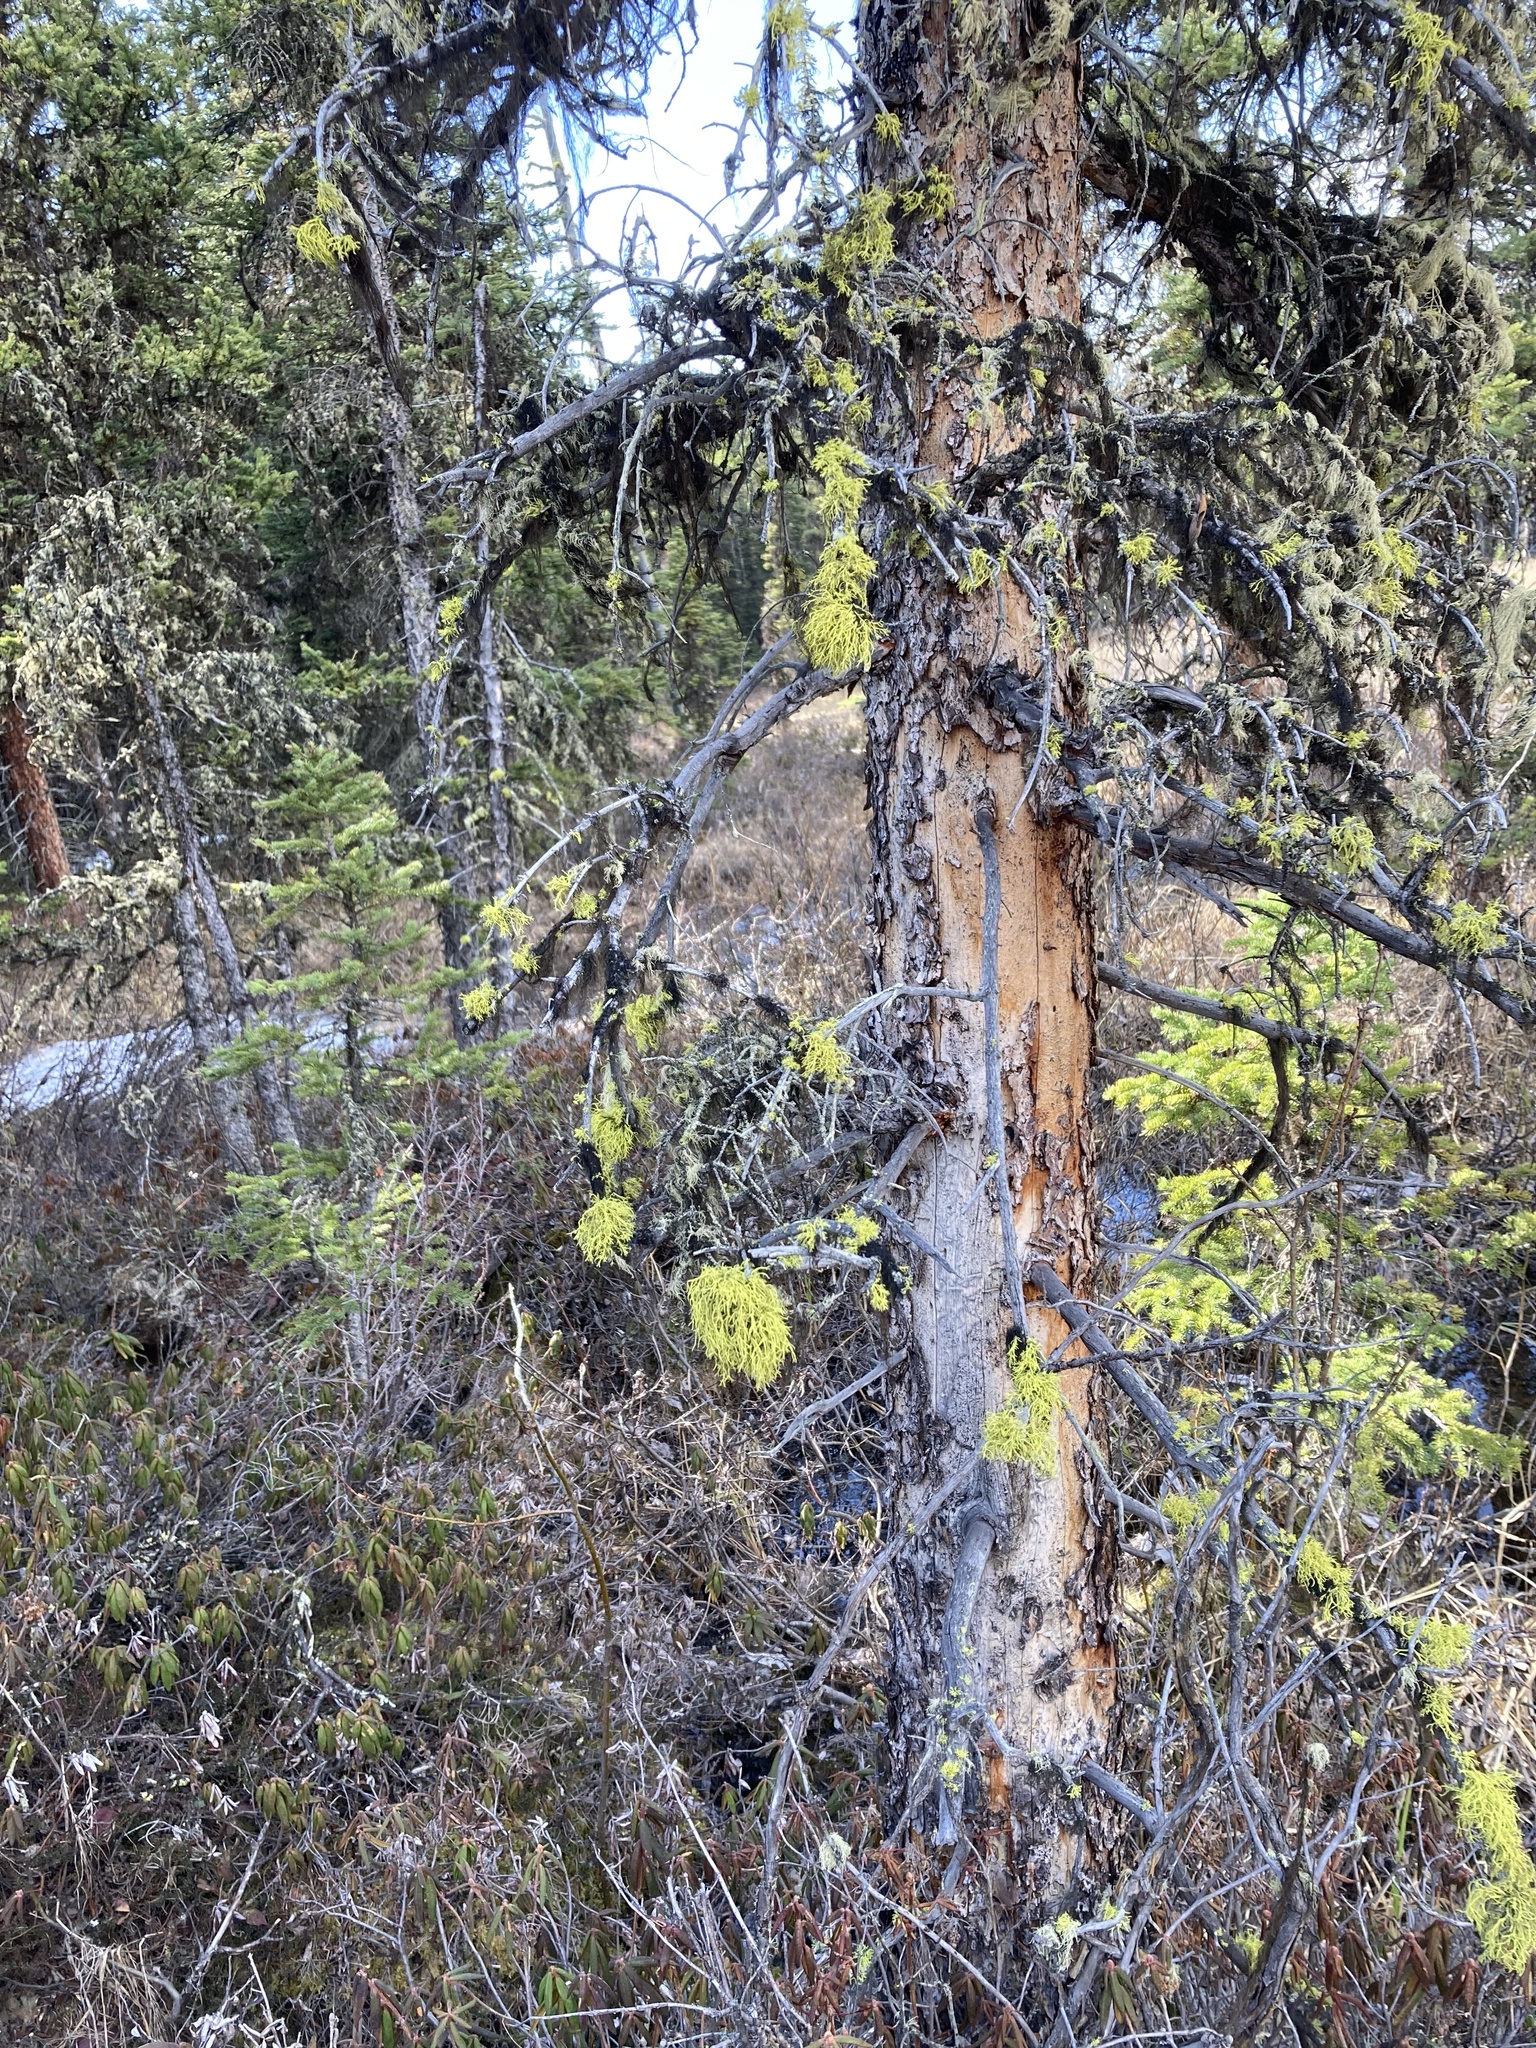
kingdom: Fungi
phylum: Ascomycota
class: Lecanoromycetes
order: Lecanorales
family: Parmeliaceae
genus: Letharia
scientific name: Letharia vulpina
